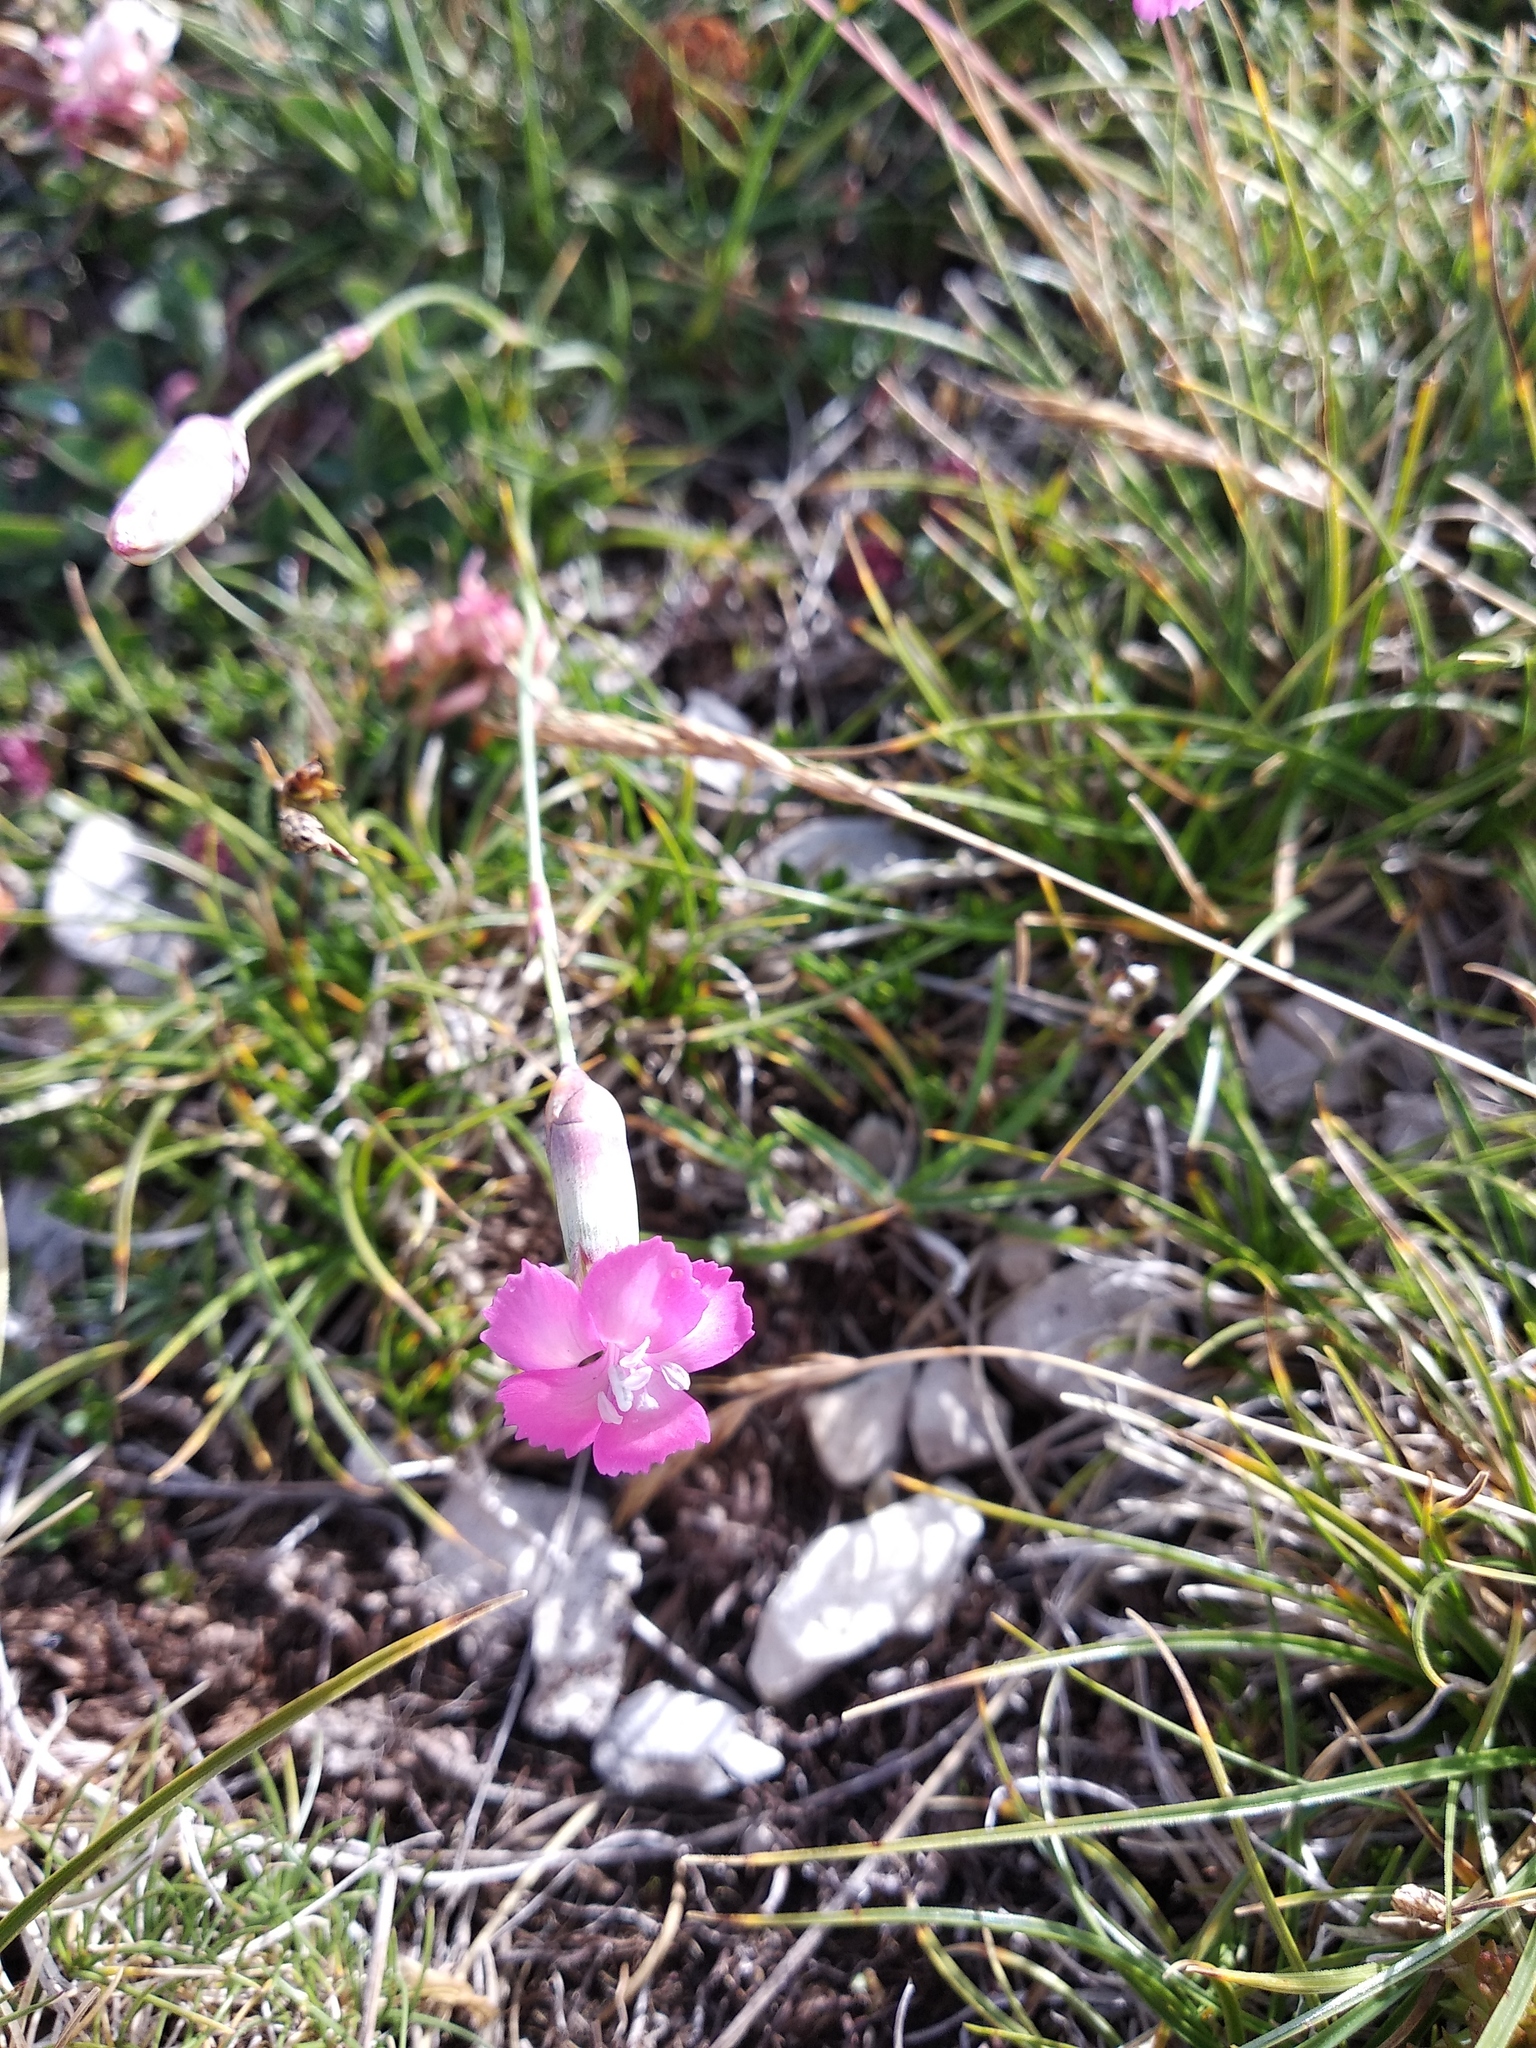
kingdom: Plantae
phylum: Tracheophyta
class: Magnoliopsida
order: Caryophyllales
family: Caryophyllaceae
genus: Dianthus
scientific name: Dianthus brachycalyx
